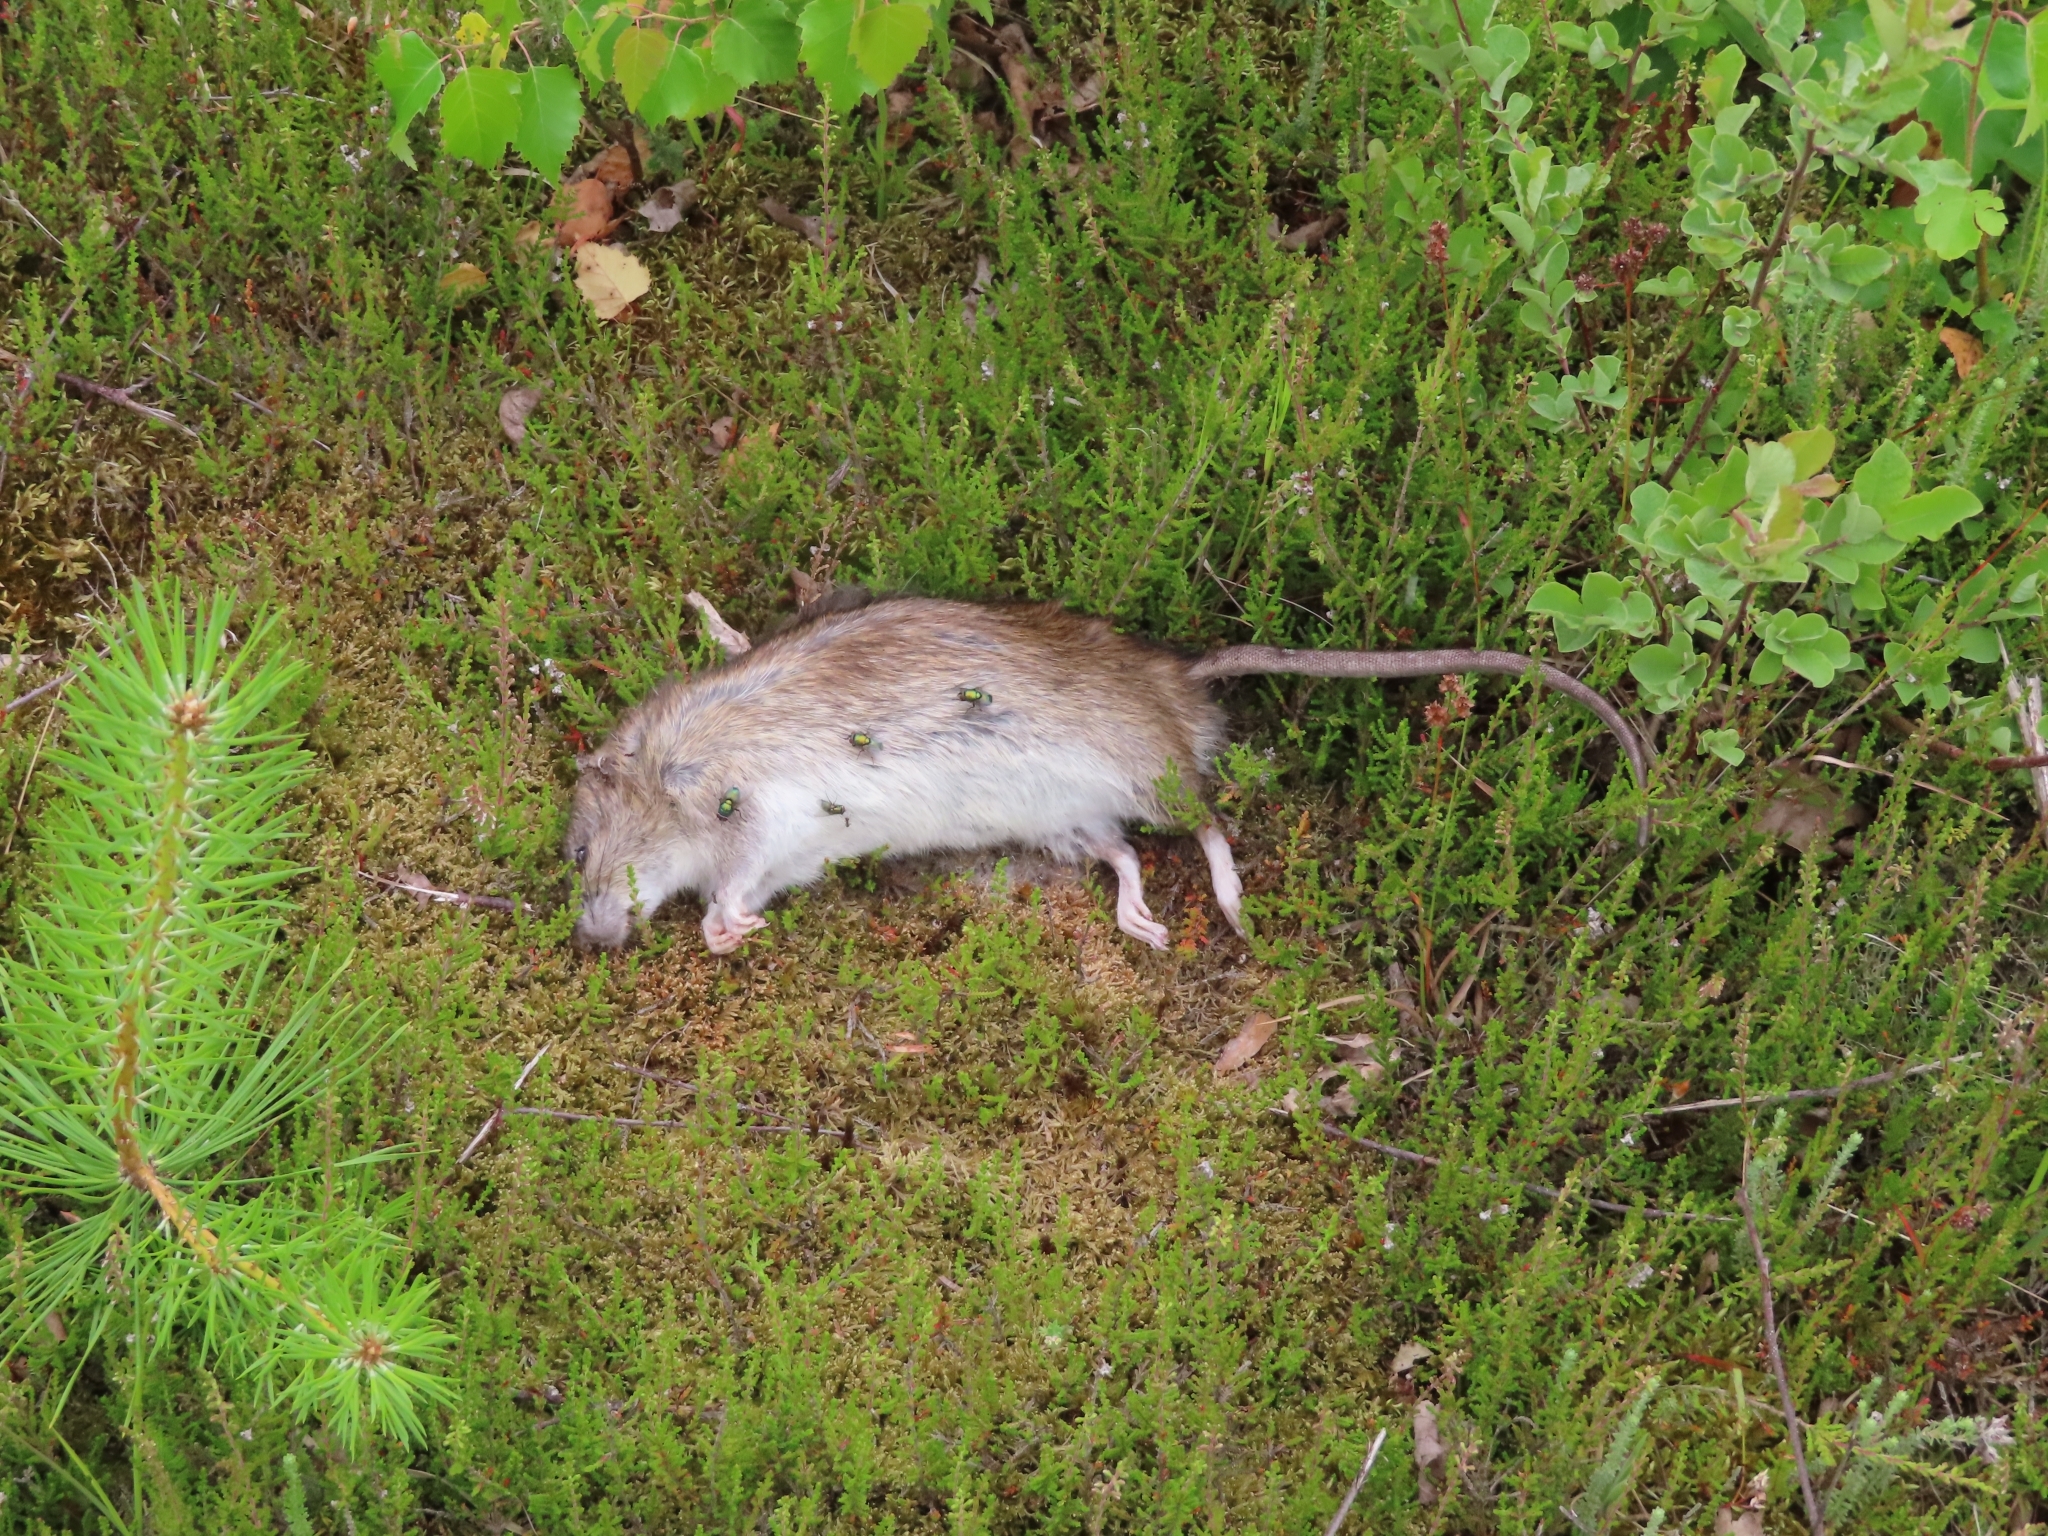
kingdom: Animalia
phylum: Chordata
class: Mammalia
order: Rodentia
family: Muridae
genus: Rattus
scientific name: Rattus norvegicus
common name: Brown rat
